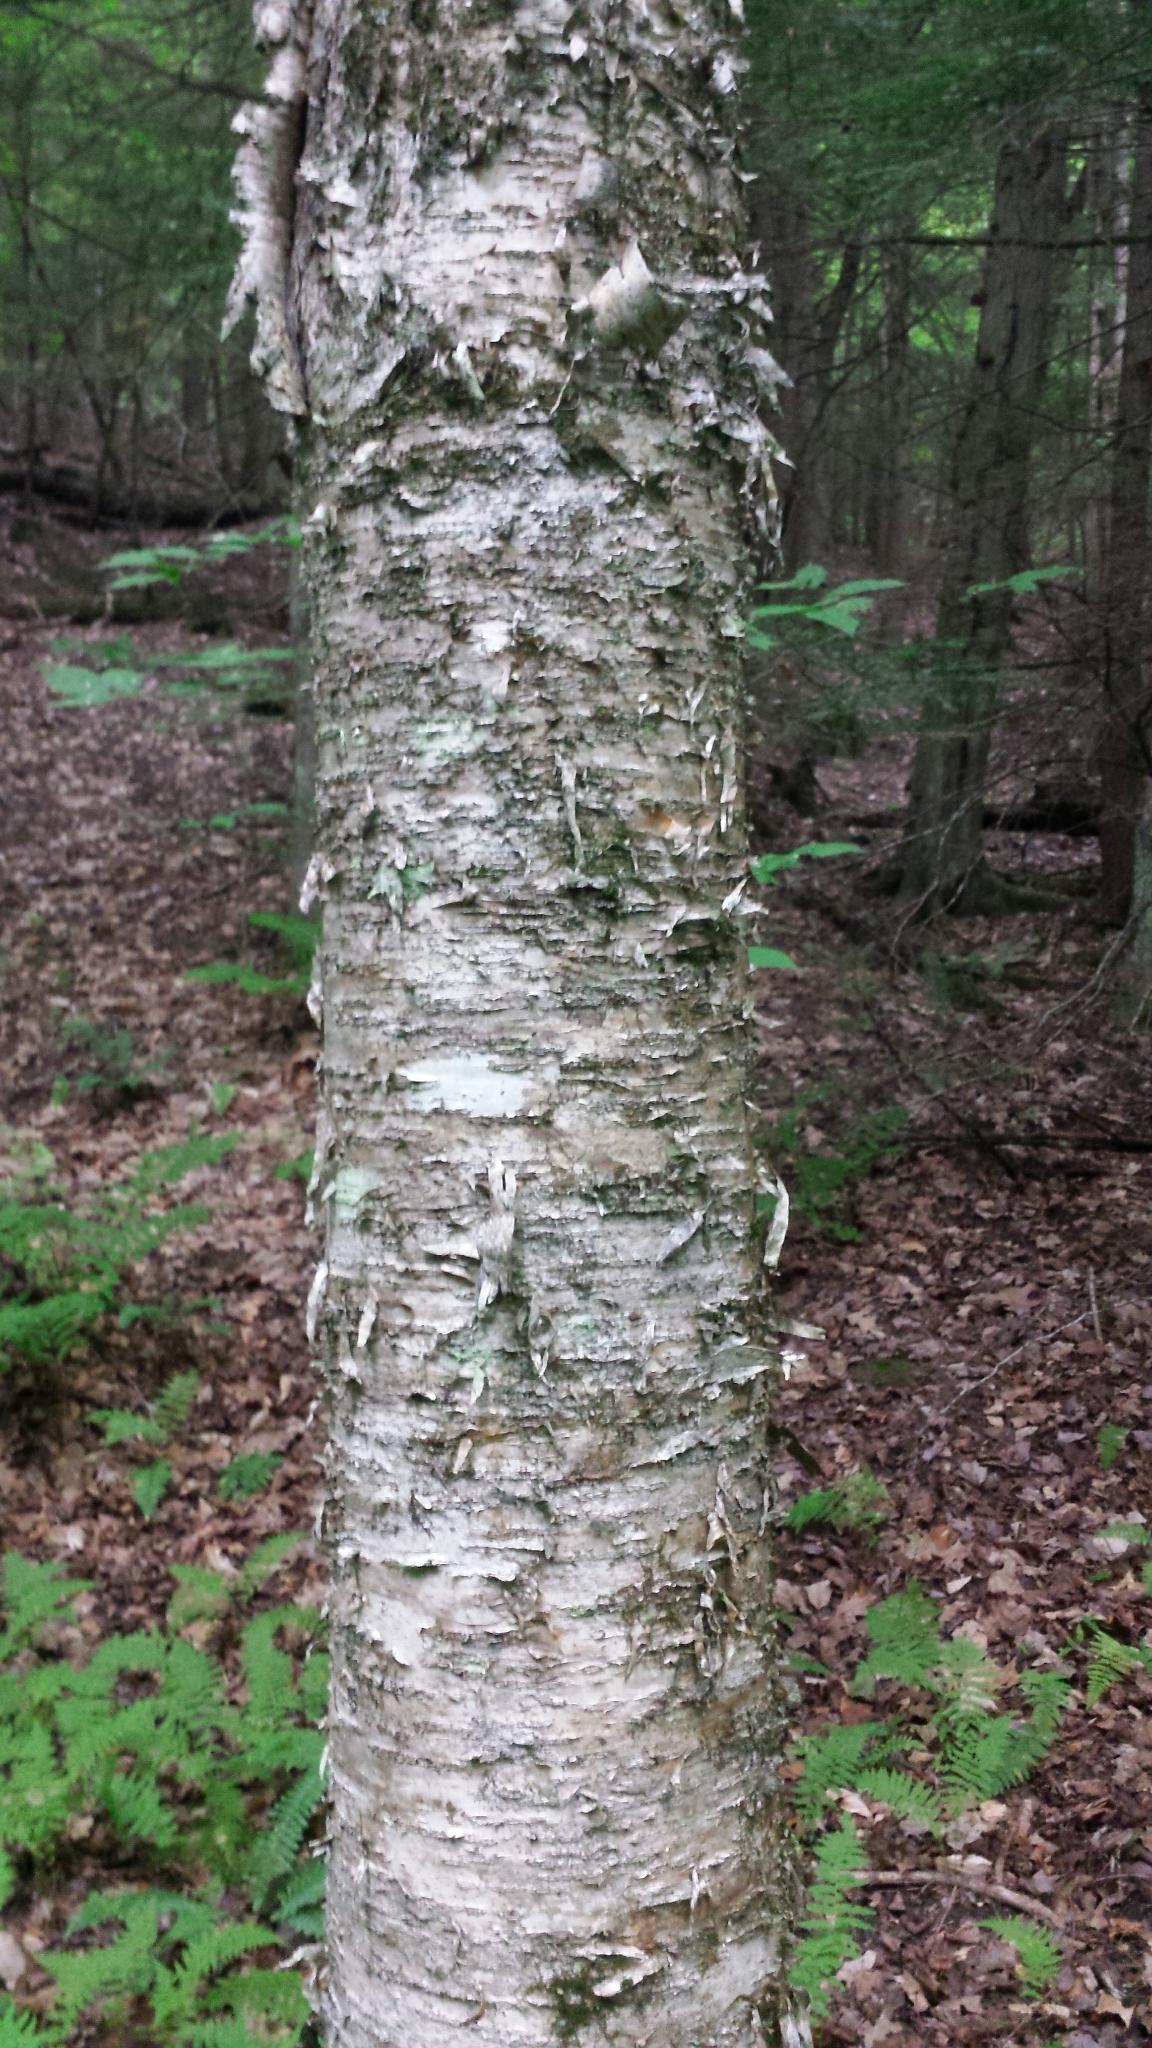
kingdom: Plantae
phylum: Tracheophyta
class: Magnoliopsida
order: Fagales
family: Betulaceae
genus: Betula
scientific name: Betula alleghaniensis
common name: Yellow birch
